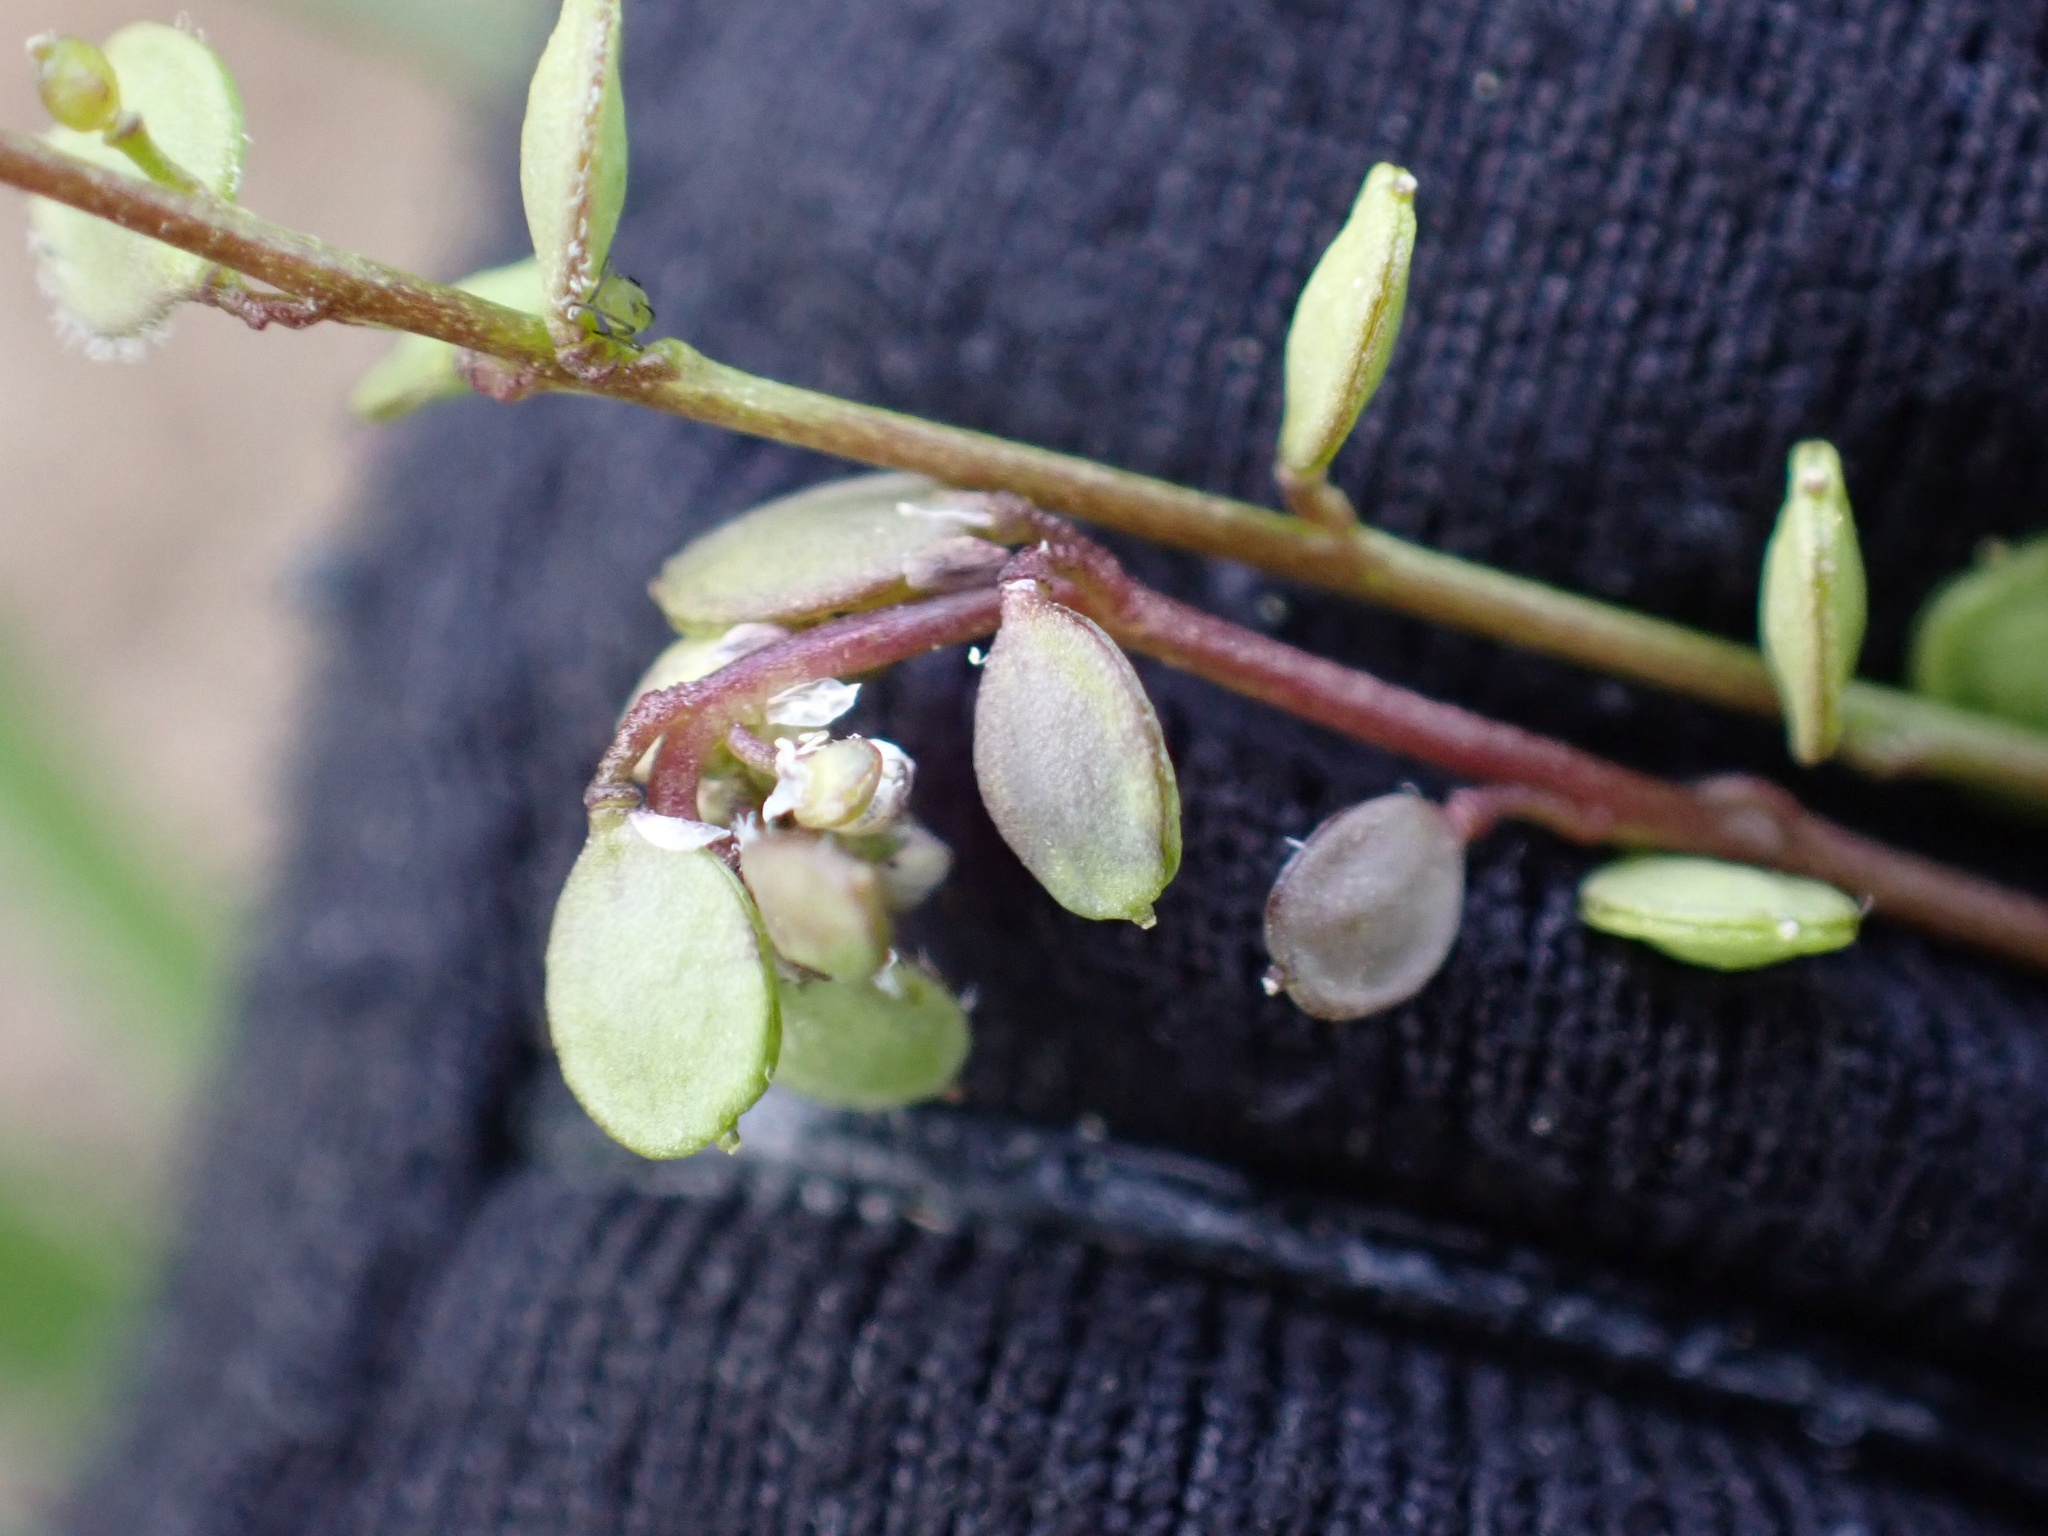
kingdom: Plantae
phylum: Tracheophyta
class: Magnoliopsida
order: Brassicales
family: Brassicaceae
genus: Athysanus
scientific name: Athysanus pusillus
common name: Common sandweed
